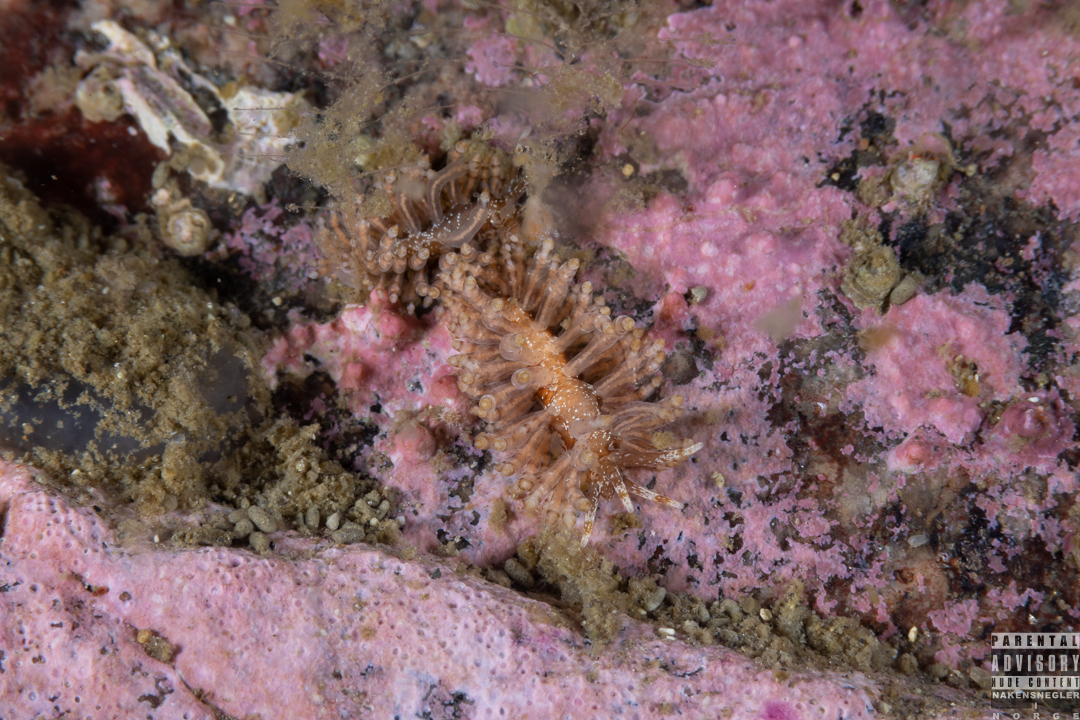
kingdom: Animalia
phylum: Mollusca
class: Gastropoda
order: Nudibranchia
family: Eubranchidae
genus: Eubranchus
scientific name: Eubranchus vittatus
